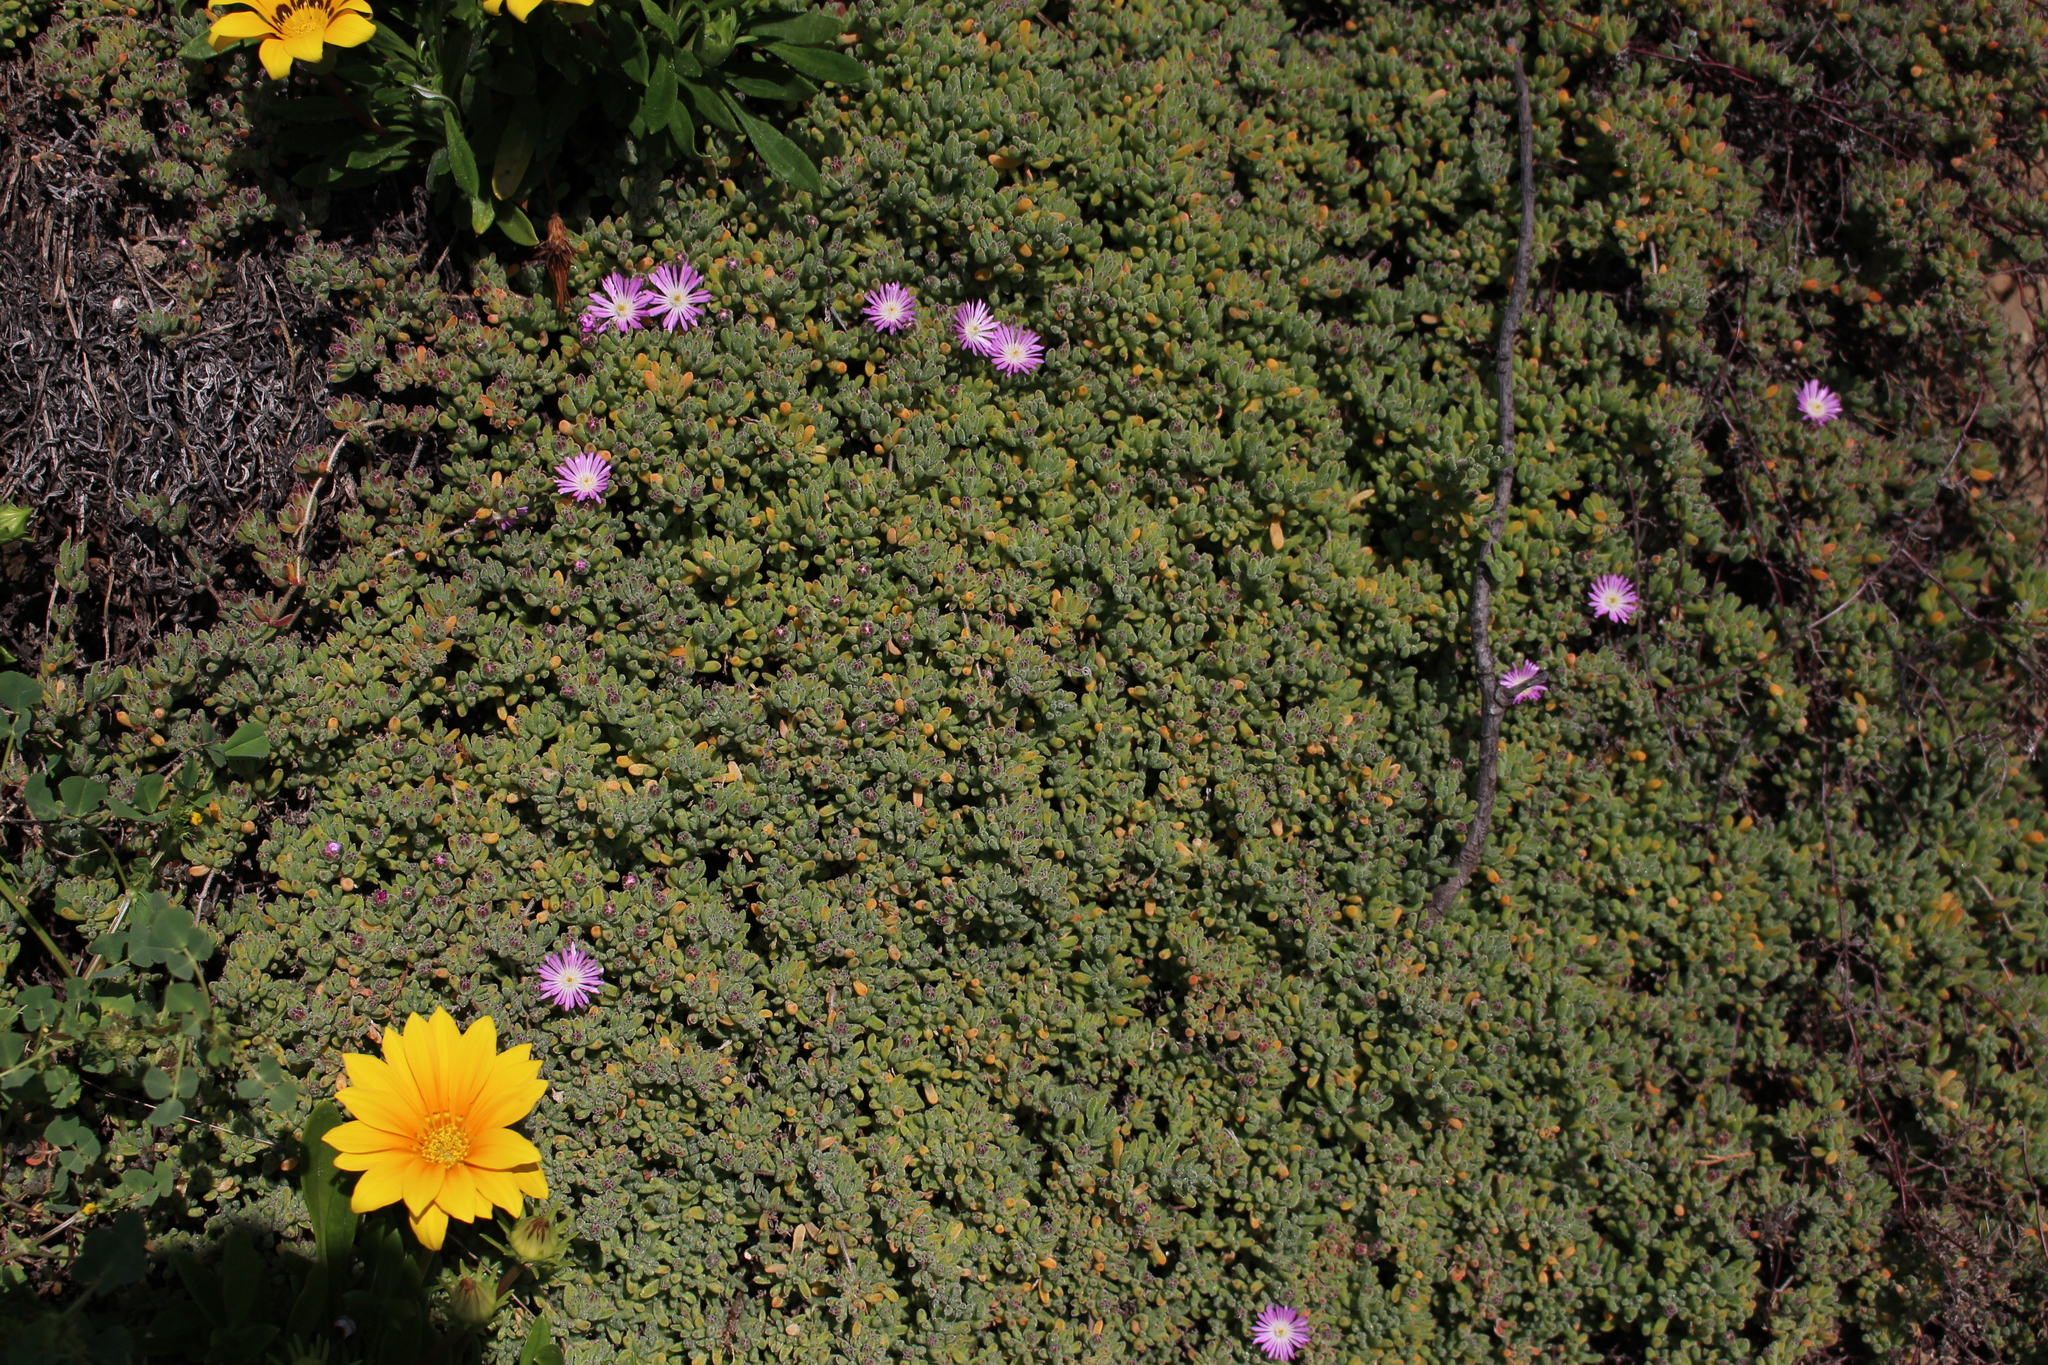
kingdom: Plantae
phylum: Tracheophyta
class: Magnoliopsida
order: Caryophyllales
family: Aizoaceae
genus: Drosanthemum
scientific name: Drosanthemum floribundum
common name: Pale dewplant
